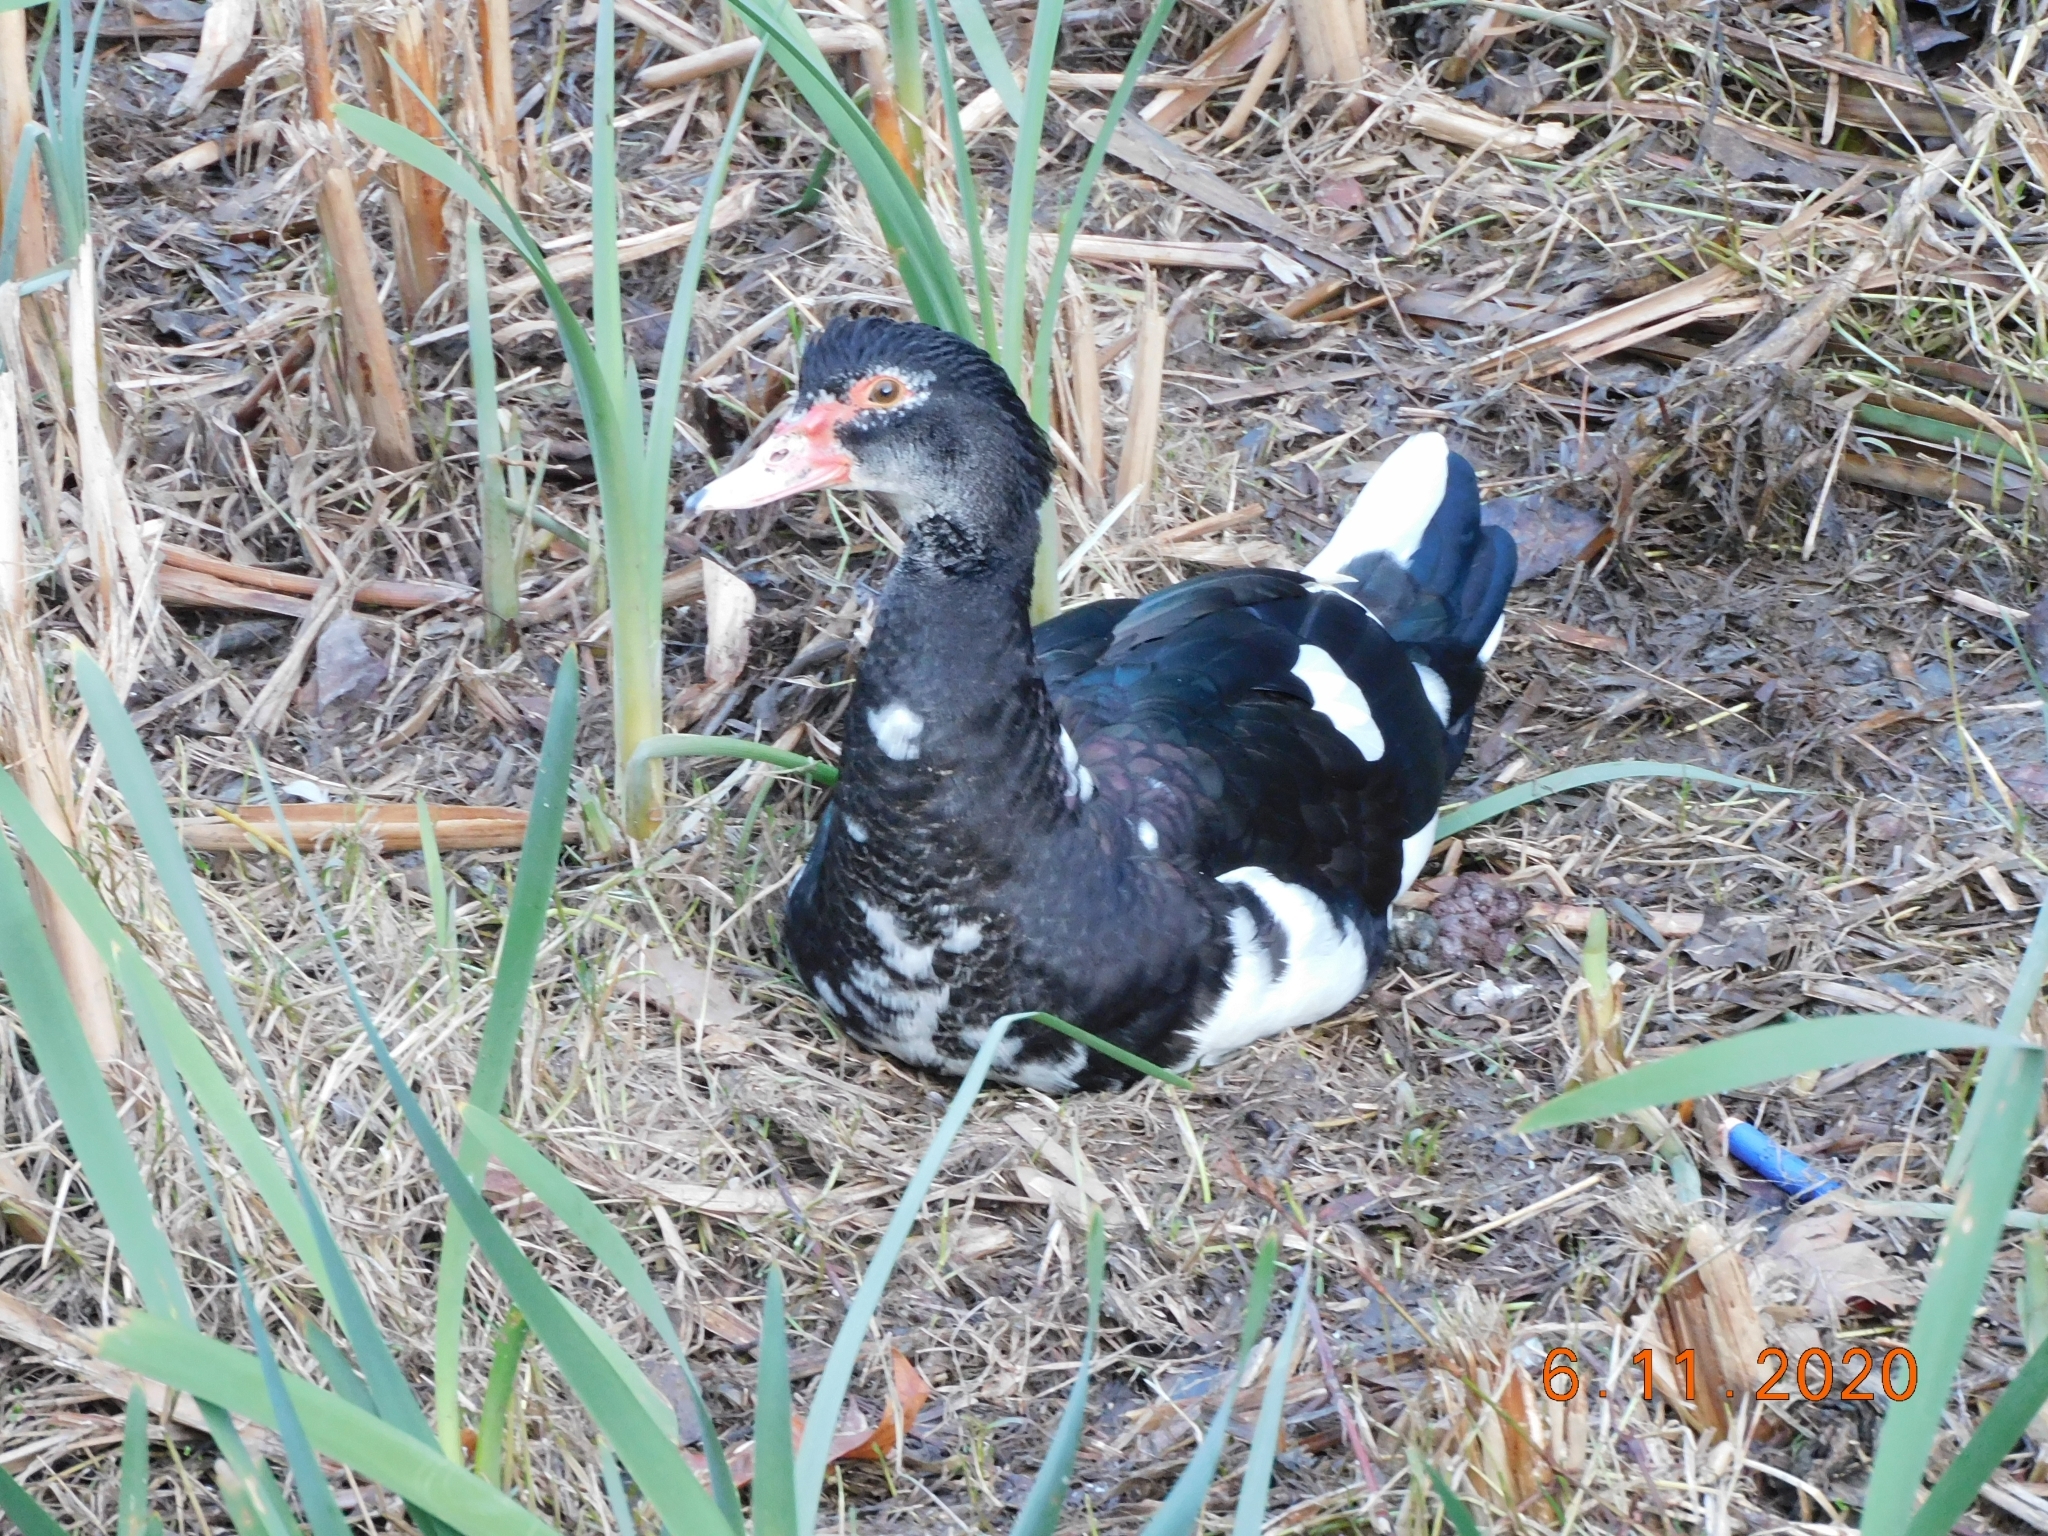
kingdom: Animalia
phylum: Chordata
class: Aves
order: Anseriformes
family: Anatidae
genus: Cairina
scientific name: Cairina moschata
